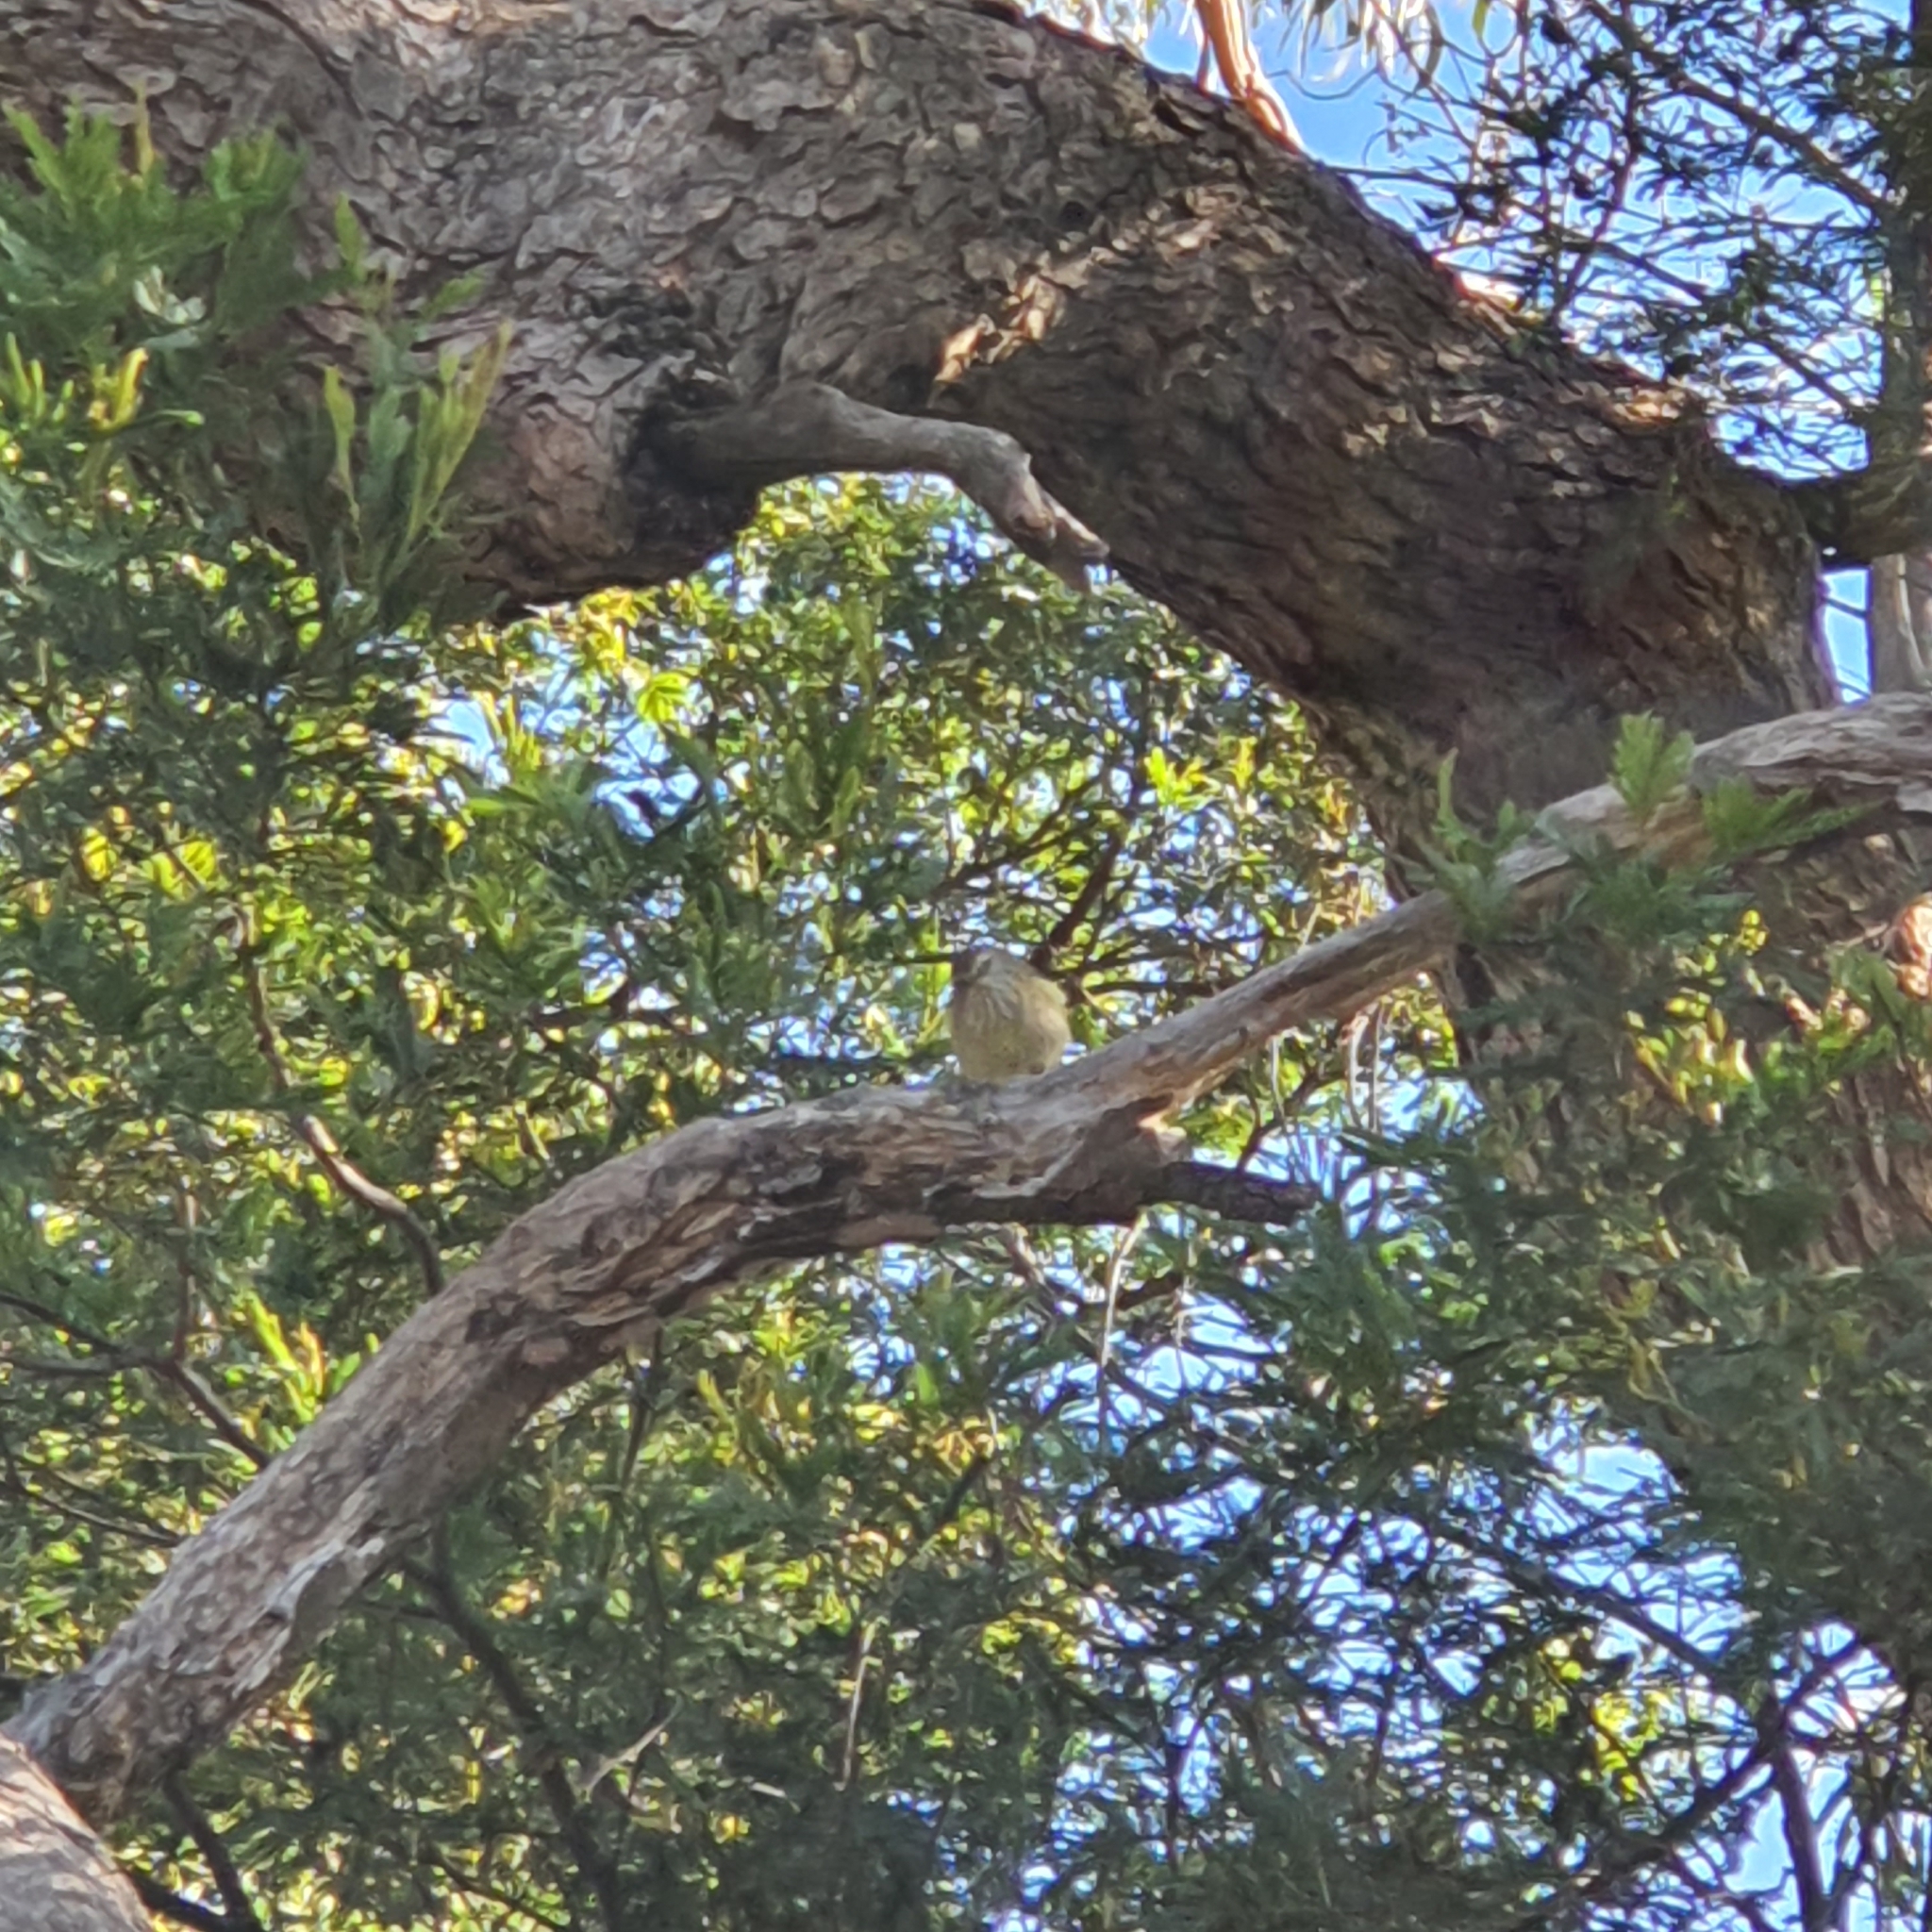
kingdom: Animalia
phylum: Chordata
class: Aves
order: Passeriformes
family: Acanthizidae
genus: Acanthiza
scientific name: Acanthiza lineata
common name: Striated thornbill
